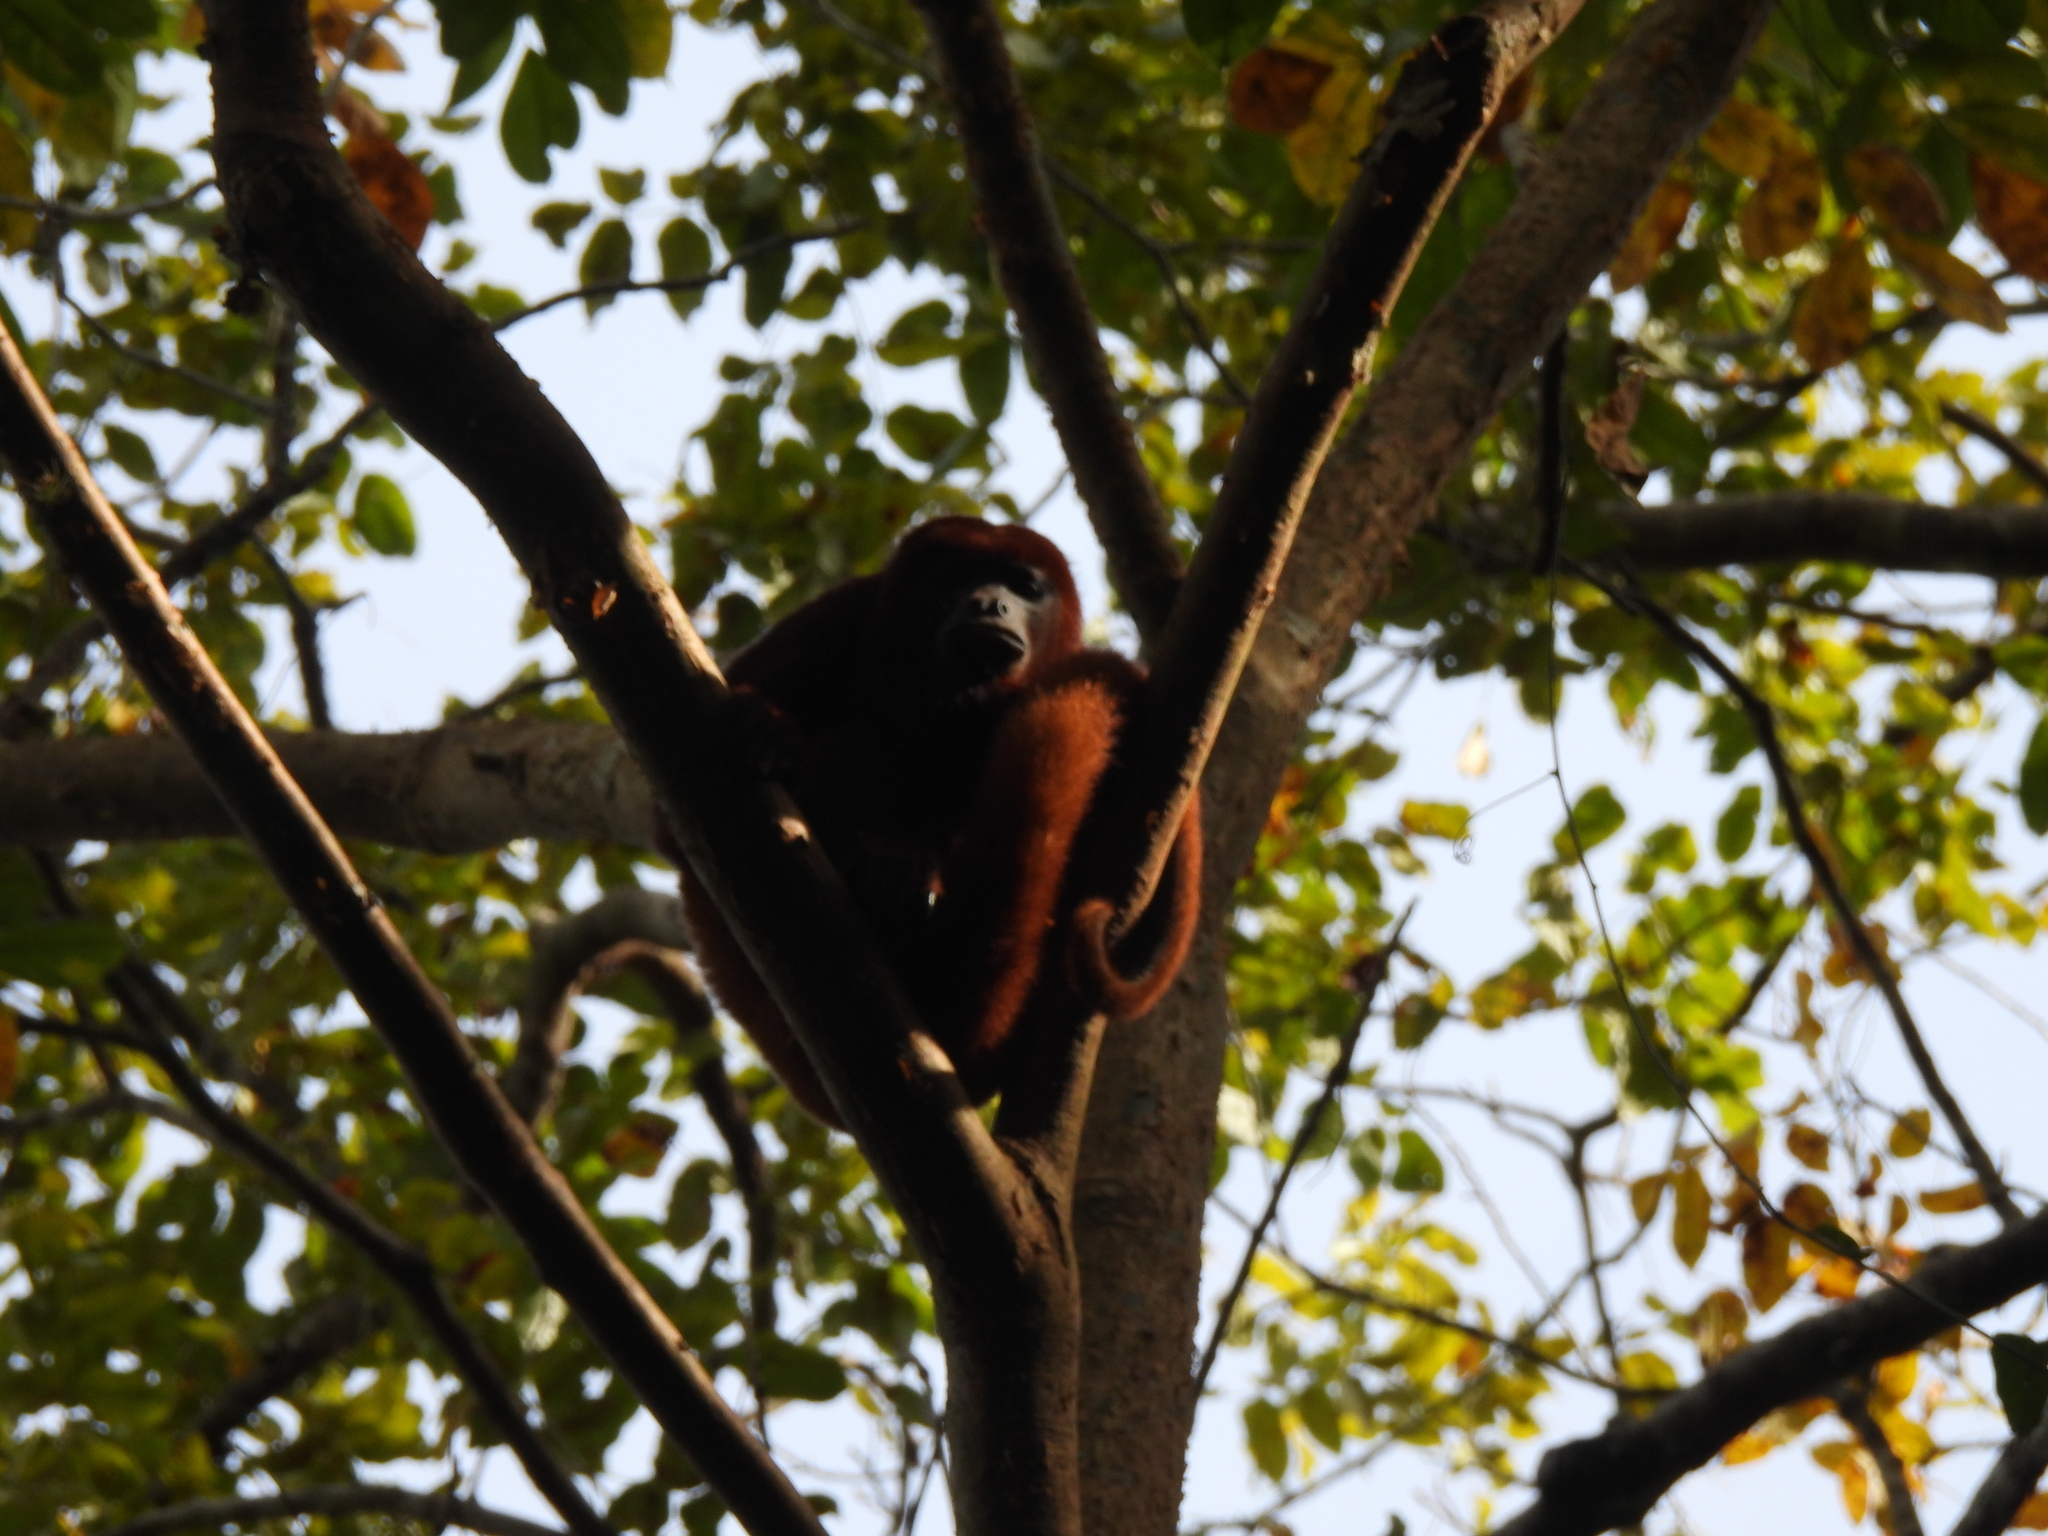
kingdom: Animalia
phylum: Chordata
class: Mammalia
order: Primates
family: Atelidae
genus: Alouatta
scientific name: Alouatta seniculus
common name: Venezuelan red howler
